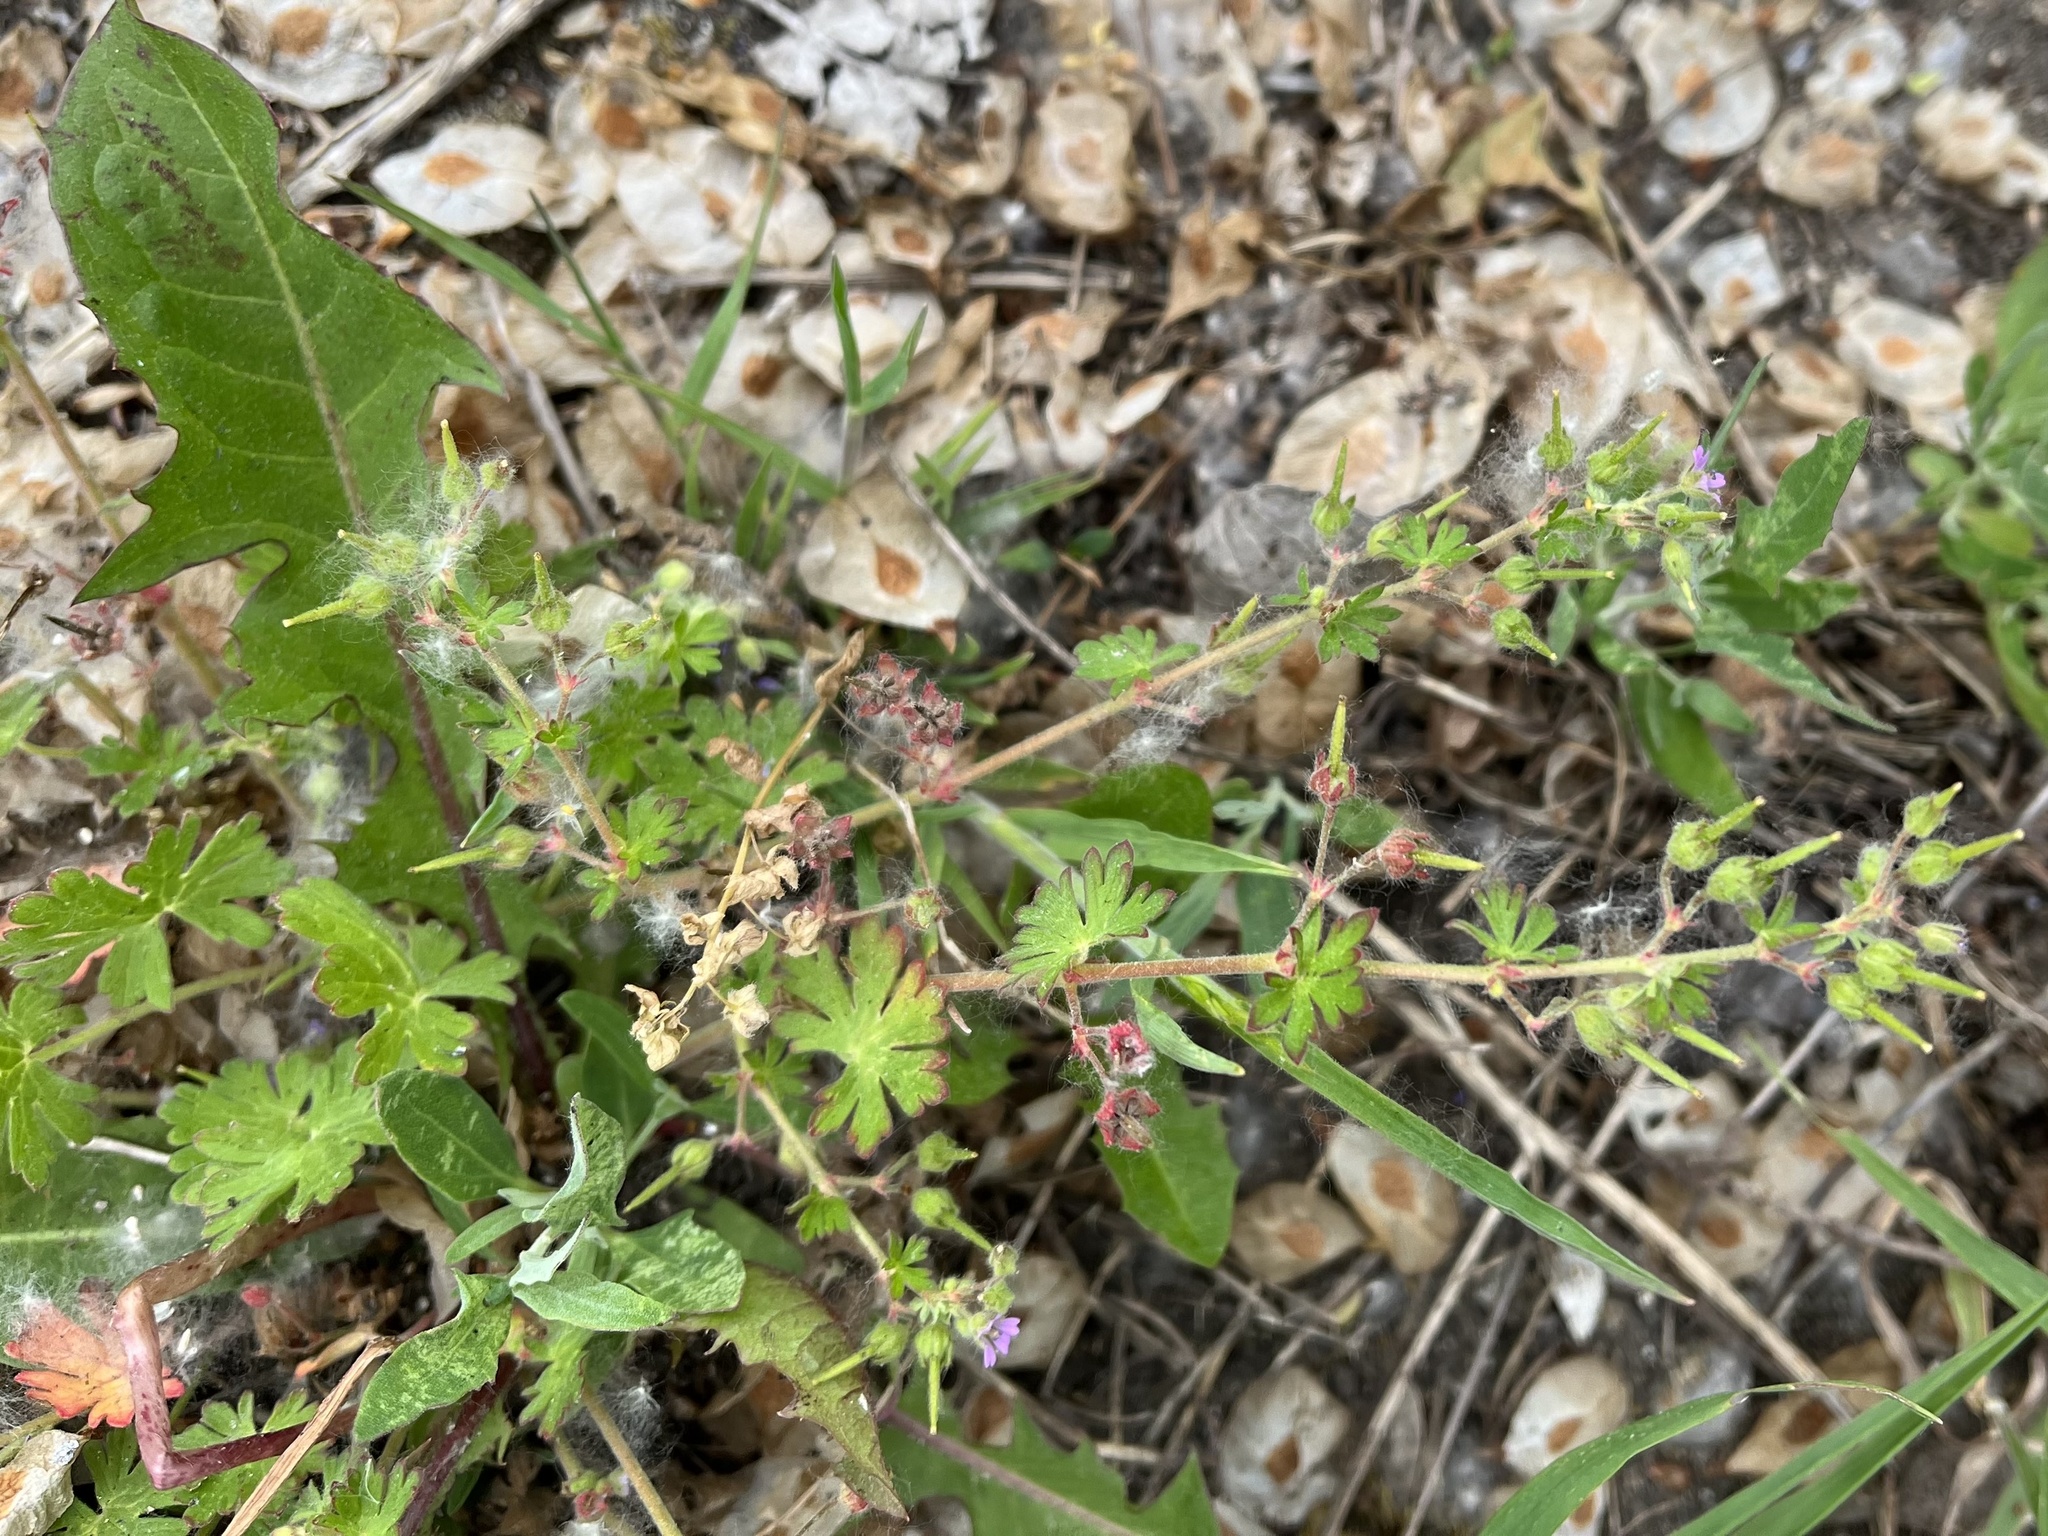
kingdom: Plantae
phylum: Tracheophyta
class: Magnoliopsida
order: Geraniales
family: Geraniaceae
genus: Geranium
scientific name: Geranium pusillum
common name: Small geranium
